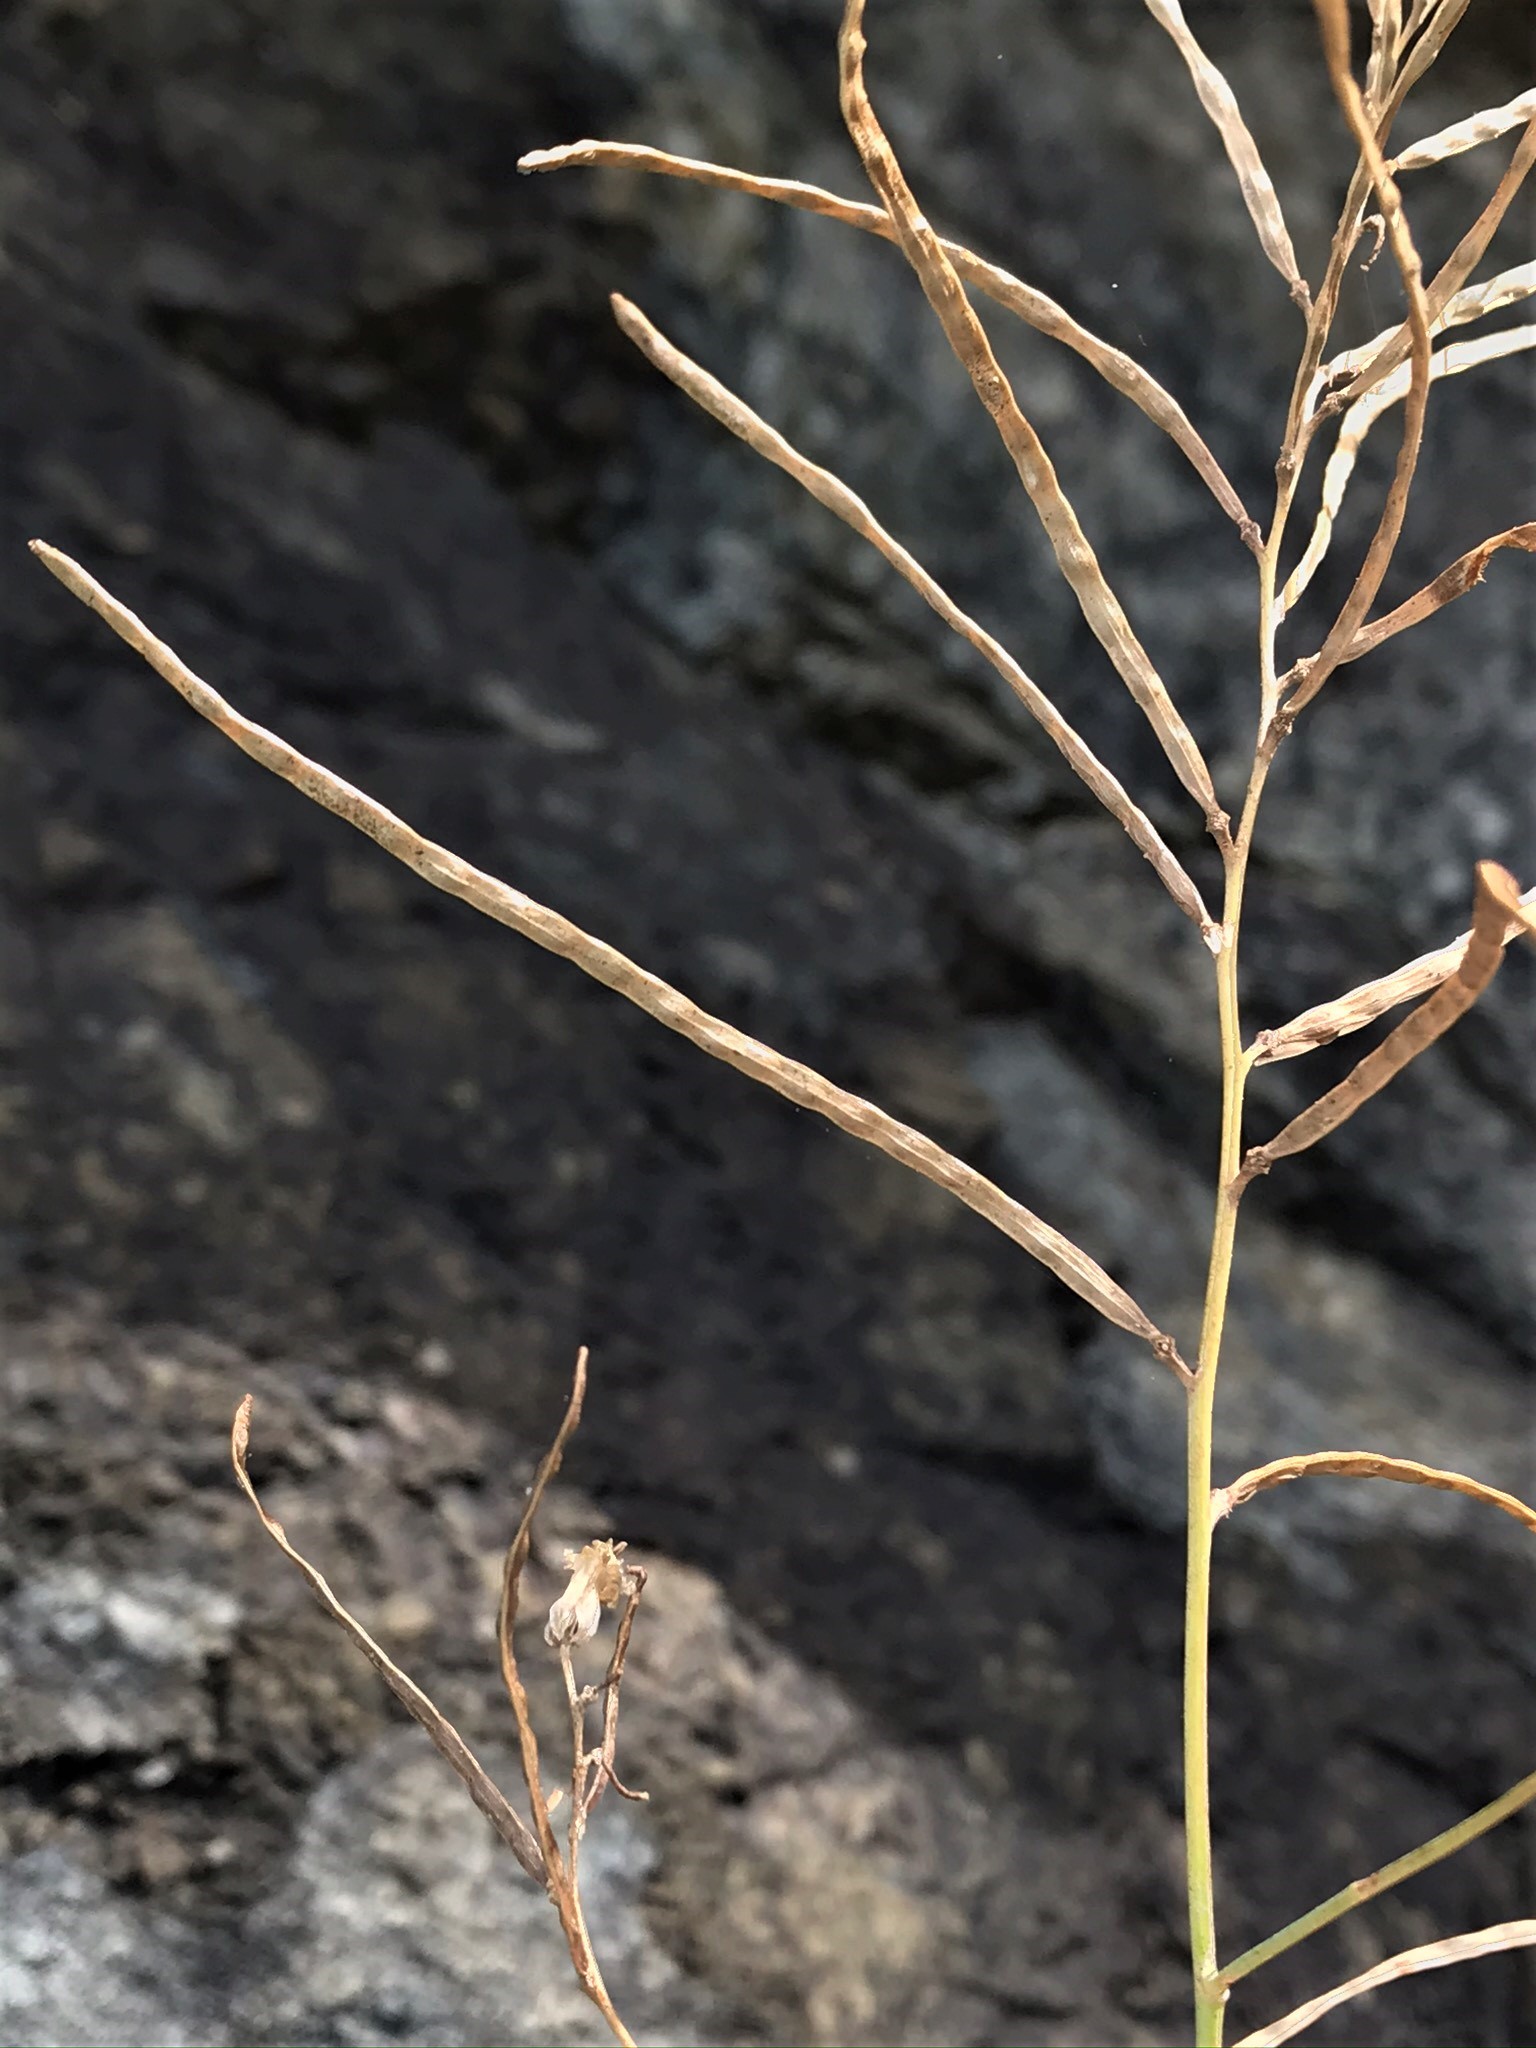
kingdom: Plantae
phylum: Tracheophyta
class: Magnoliopsida
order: Brassicales
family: Brassicaceae
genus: Streptanthus
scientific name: Streptanthus morrisonii
